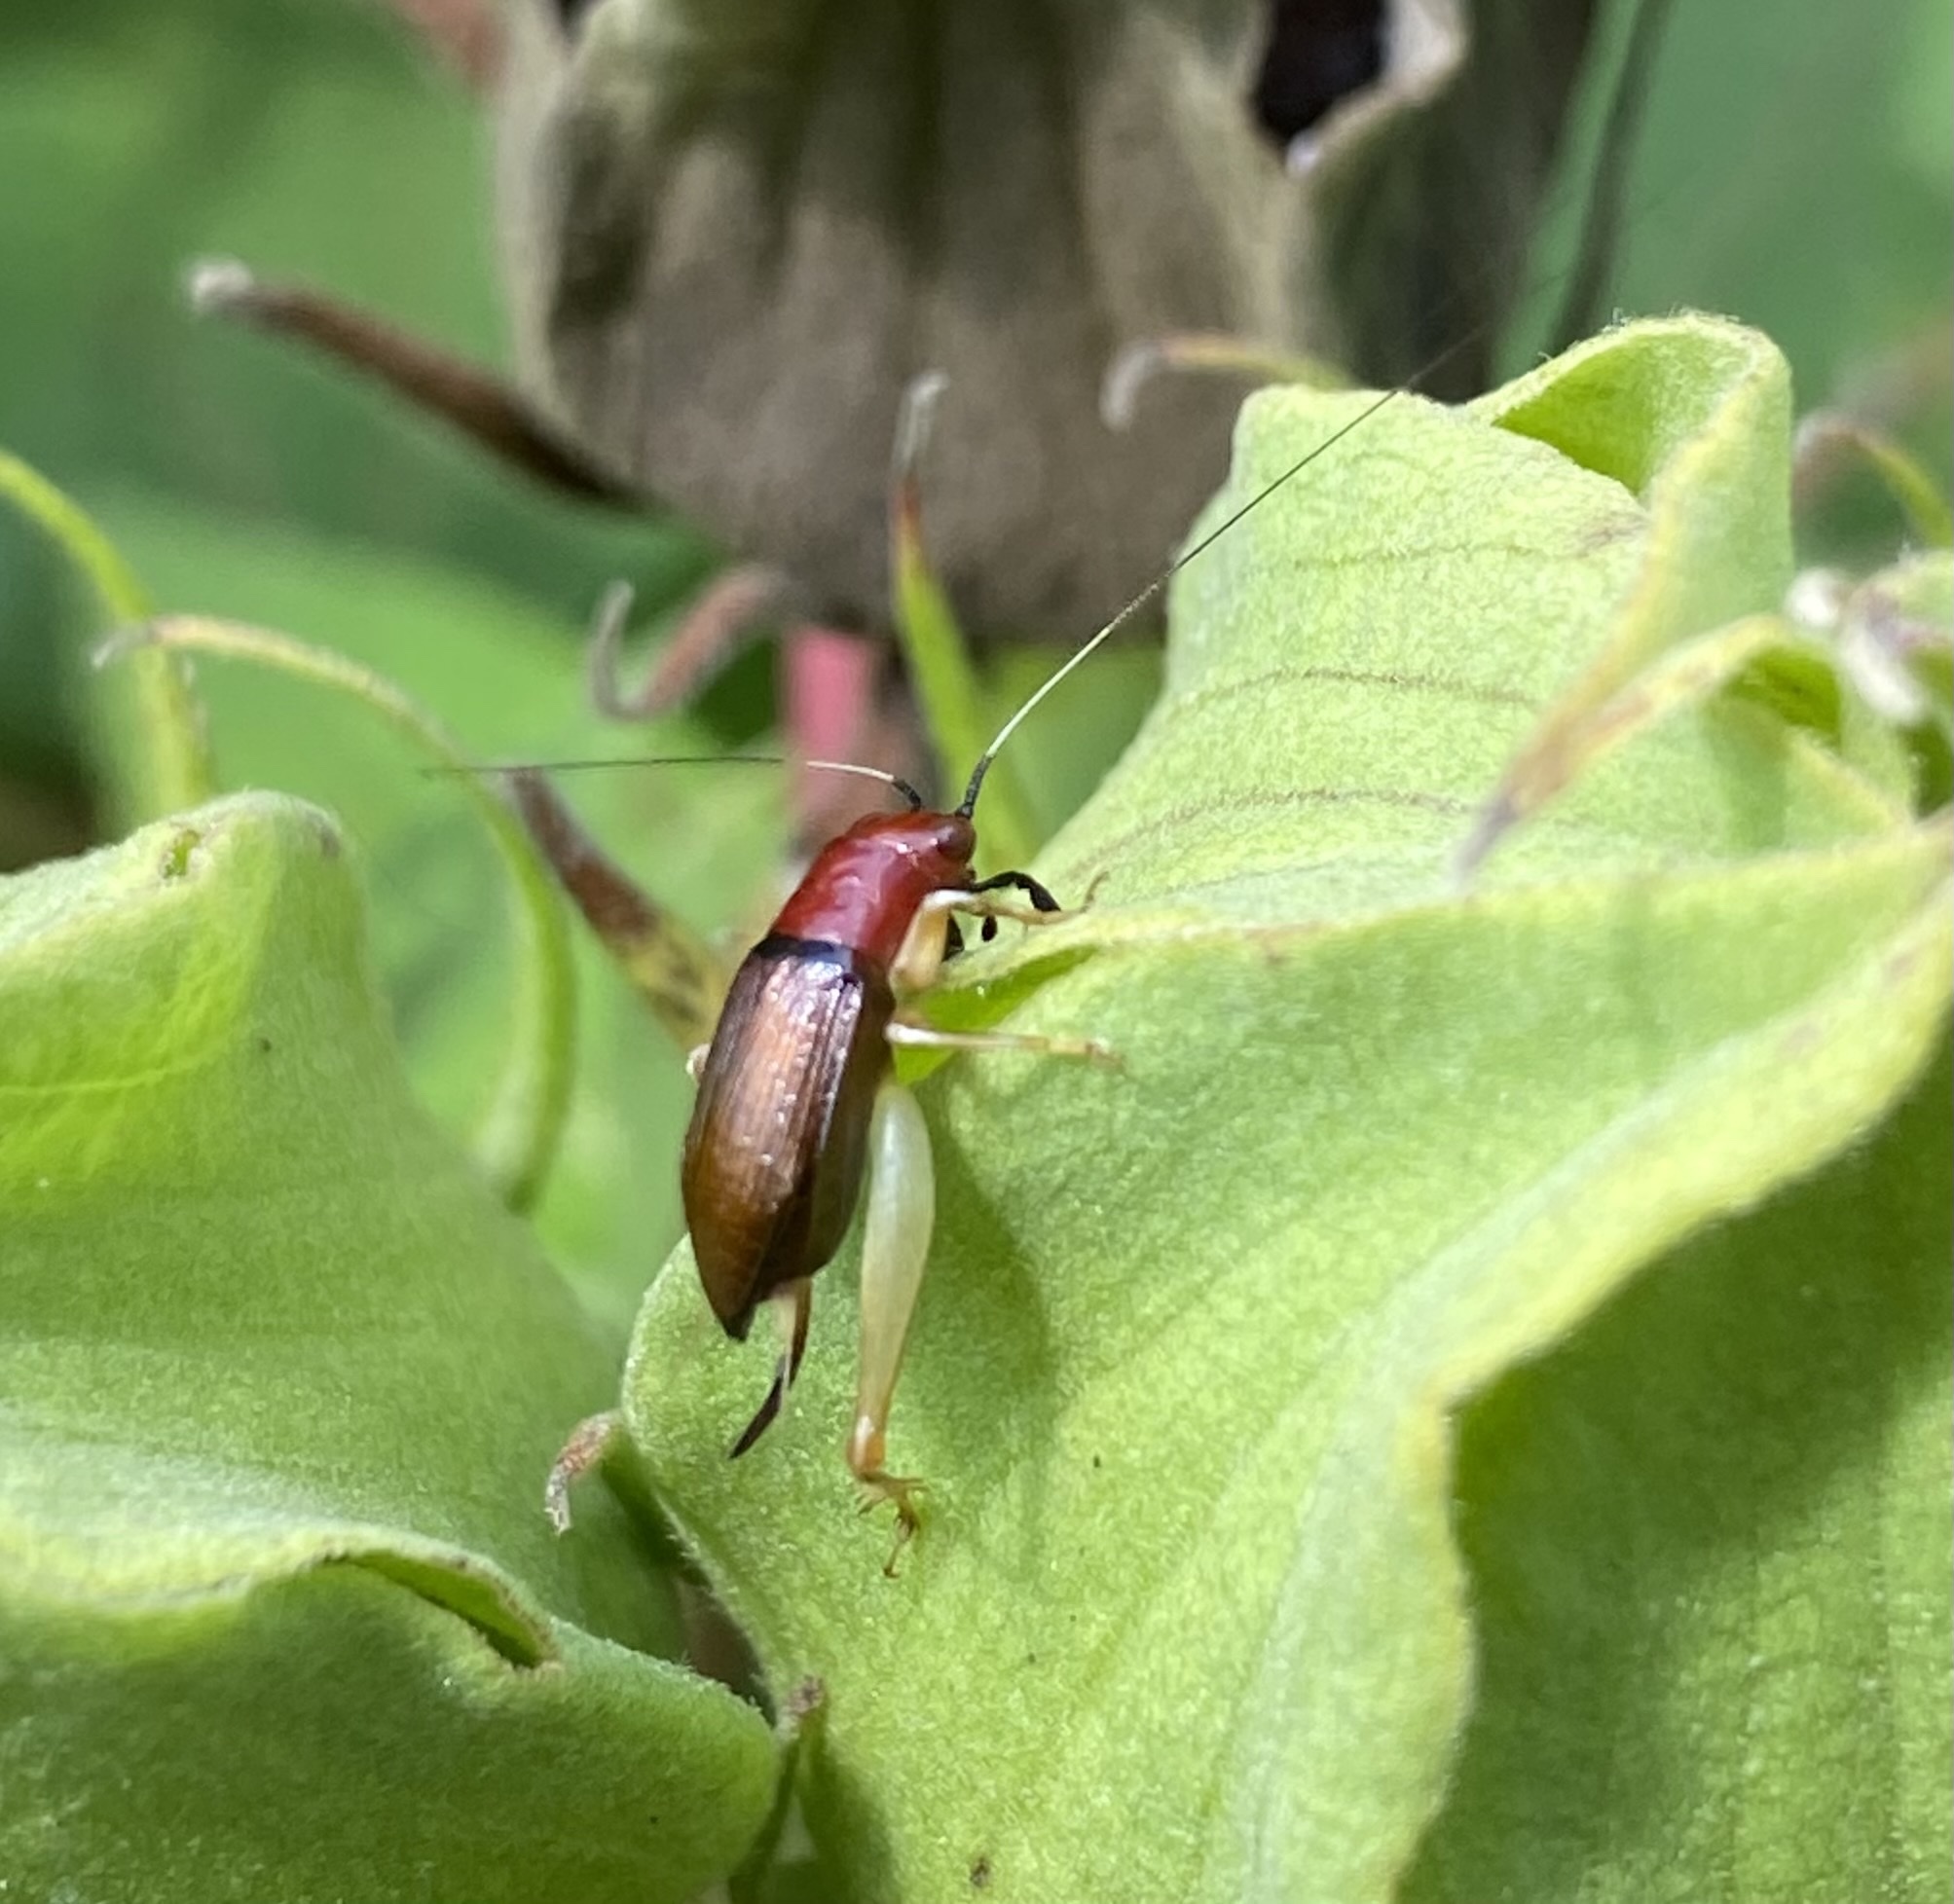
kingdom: Animalia
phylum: Arthropoda
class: Insecta
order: Orthoptera
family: Trigonidiidae
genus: Phyllopalpus
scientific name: Phyllopalpus pulchellus
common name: Handsome trig
